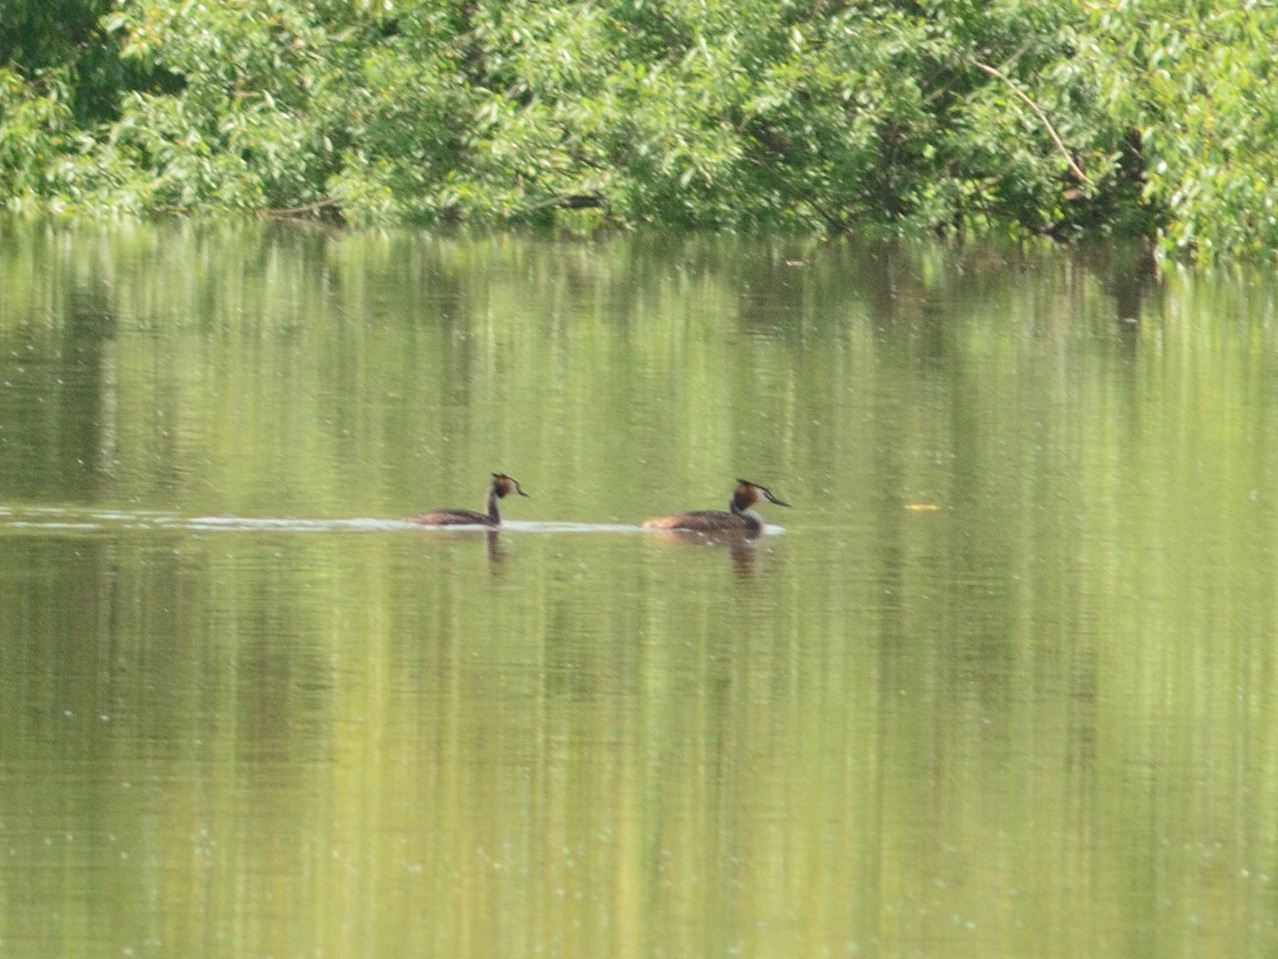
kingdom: Animalia
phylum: Chordata
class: Aves
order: Podicipediformes
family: Podicipedidae
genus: Podiceps
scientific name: Podiceps cristatus
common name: Great crested grebe
